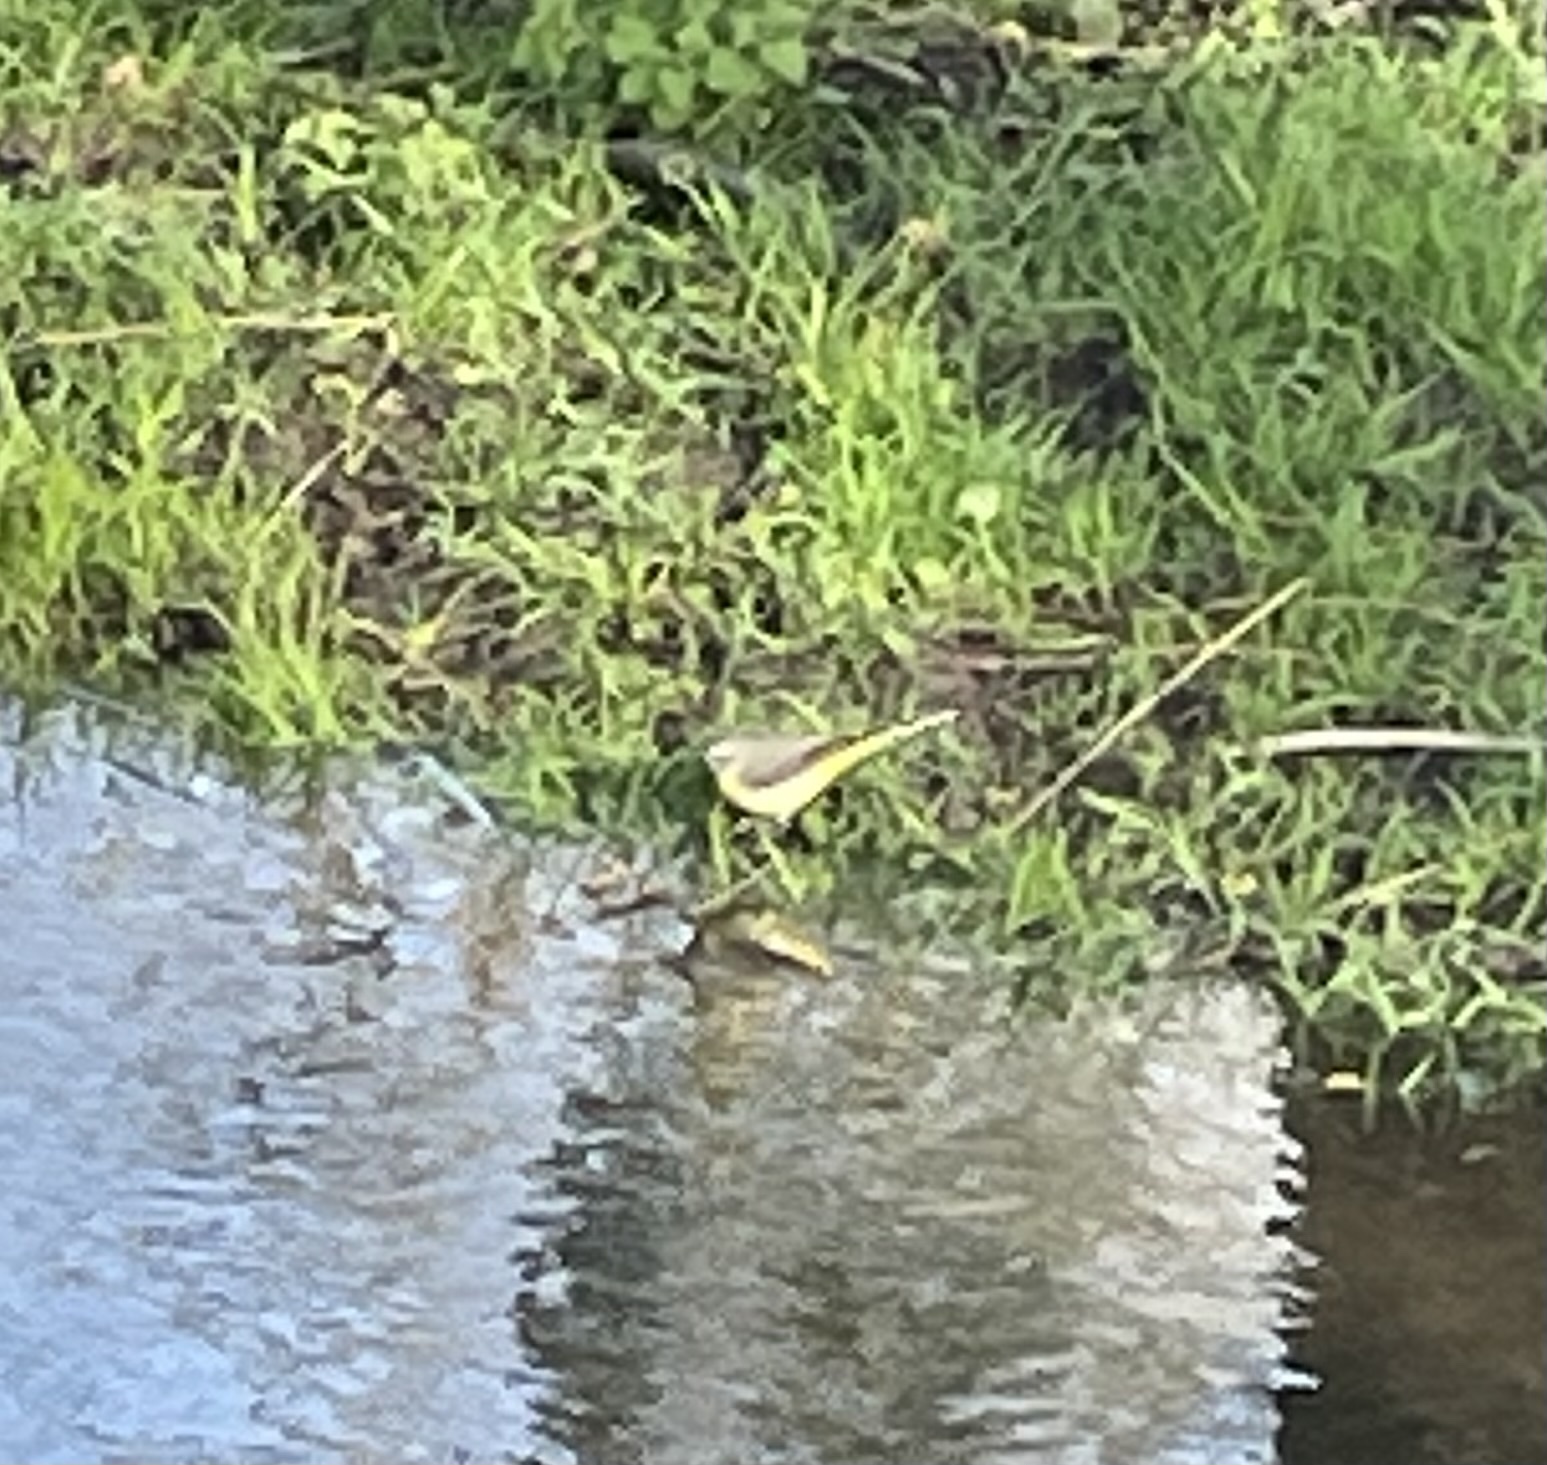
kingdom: Animalia
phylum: Chordata
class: Aves
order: Passeriformes
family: Motacillidae
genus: Motacilla
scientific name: Motacilla cinerea
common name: Grey wagtail
